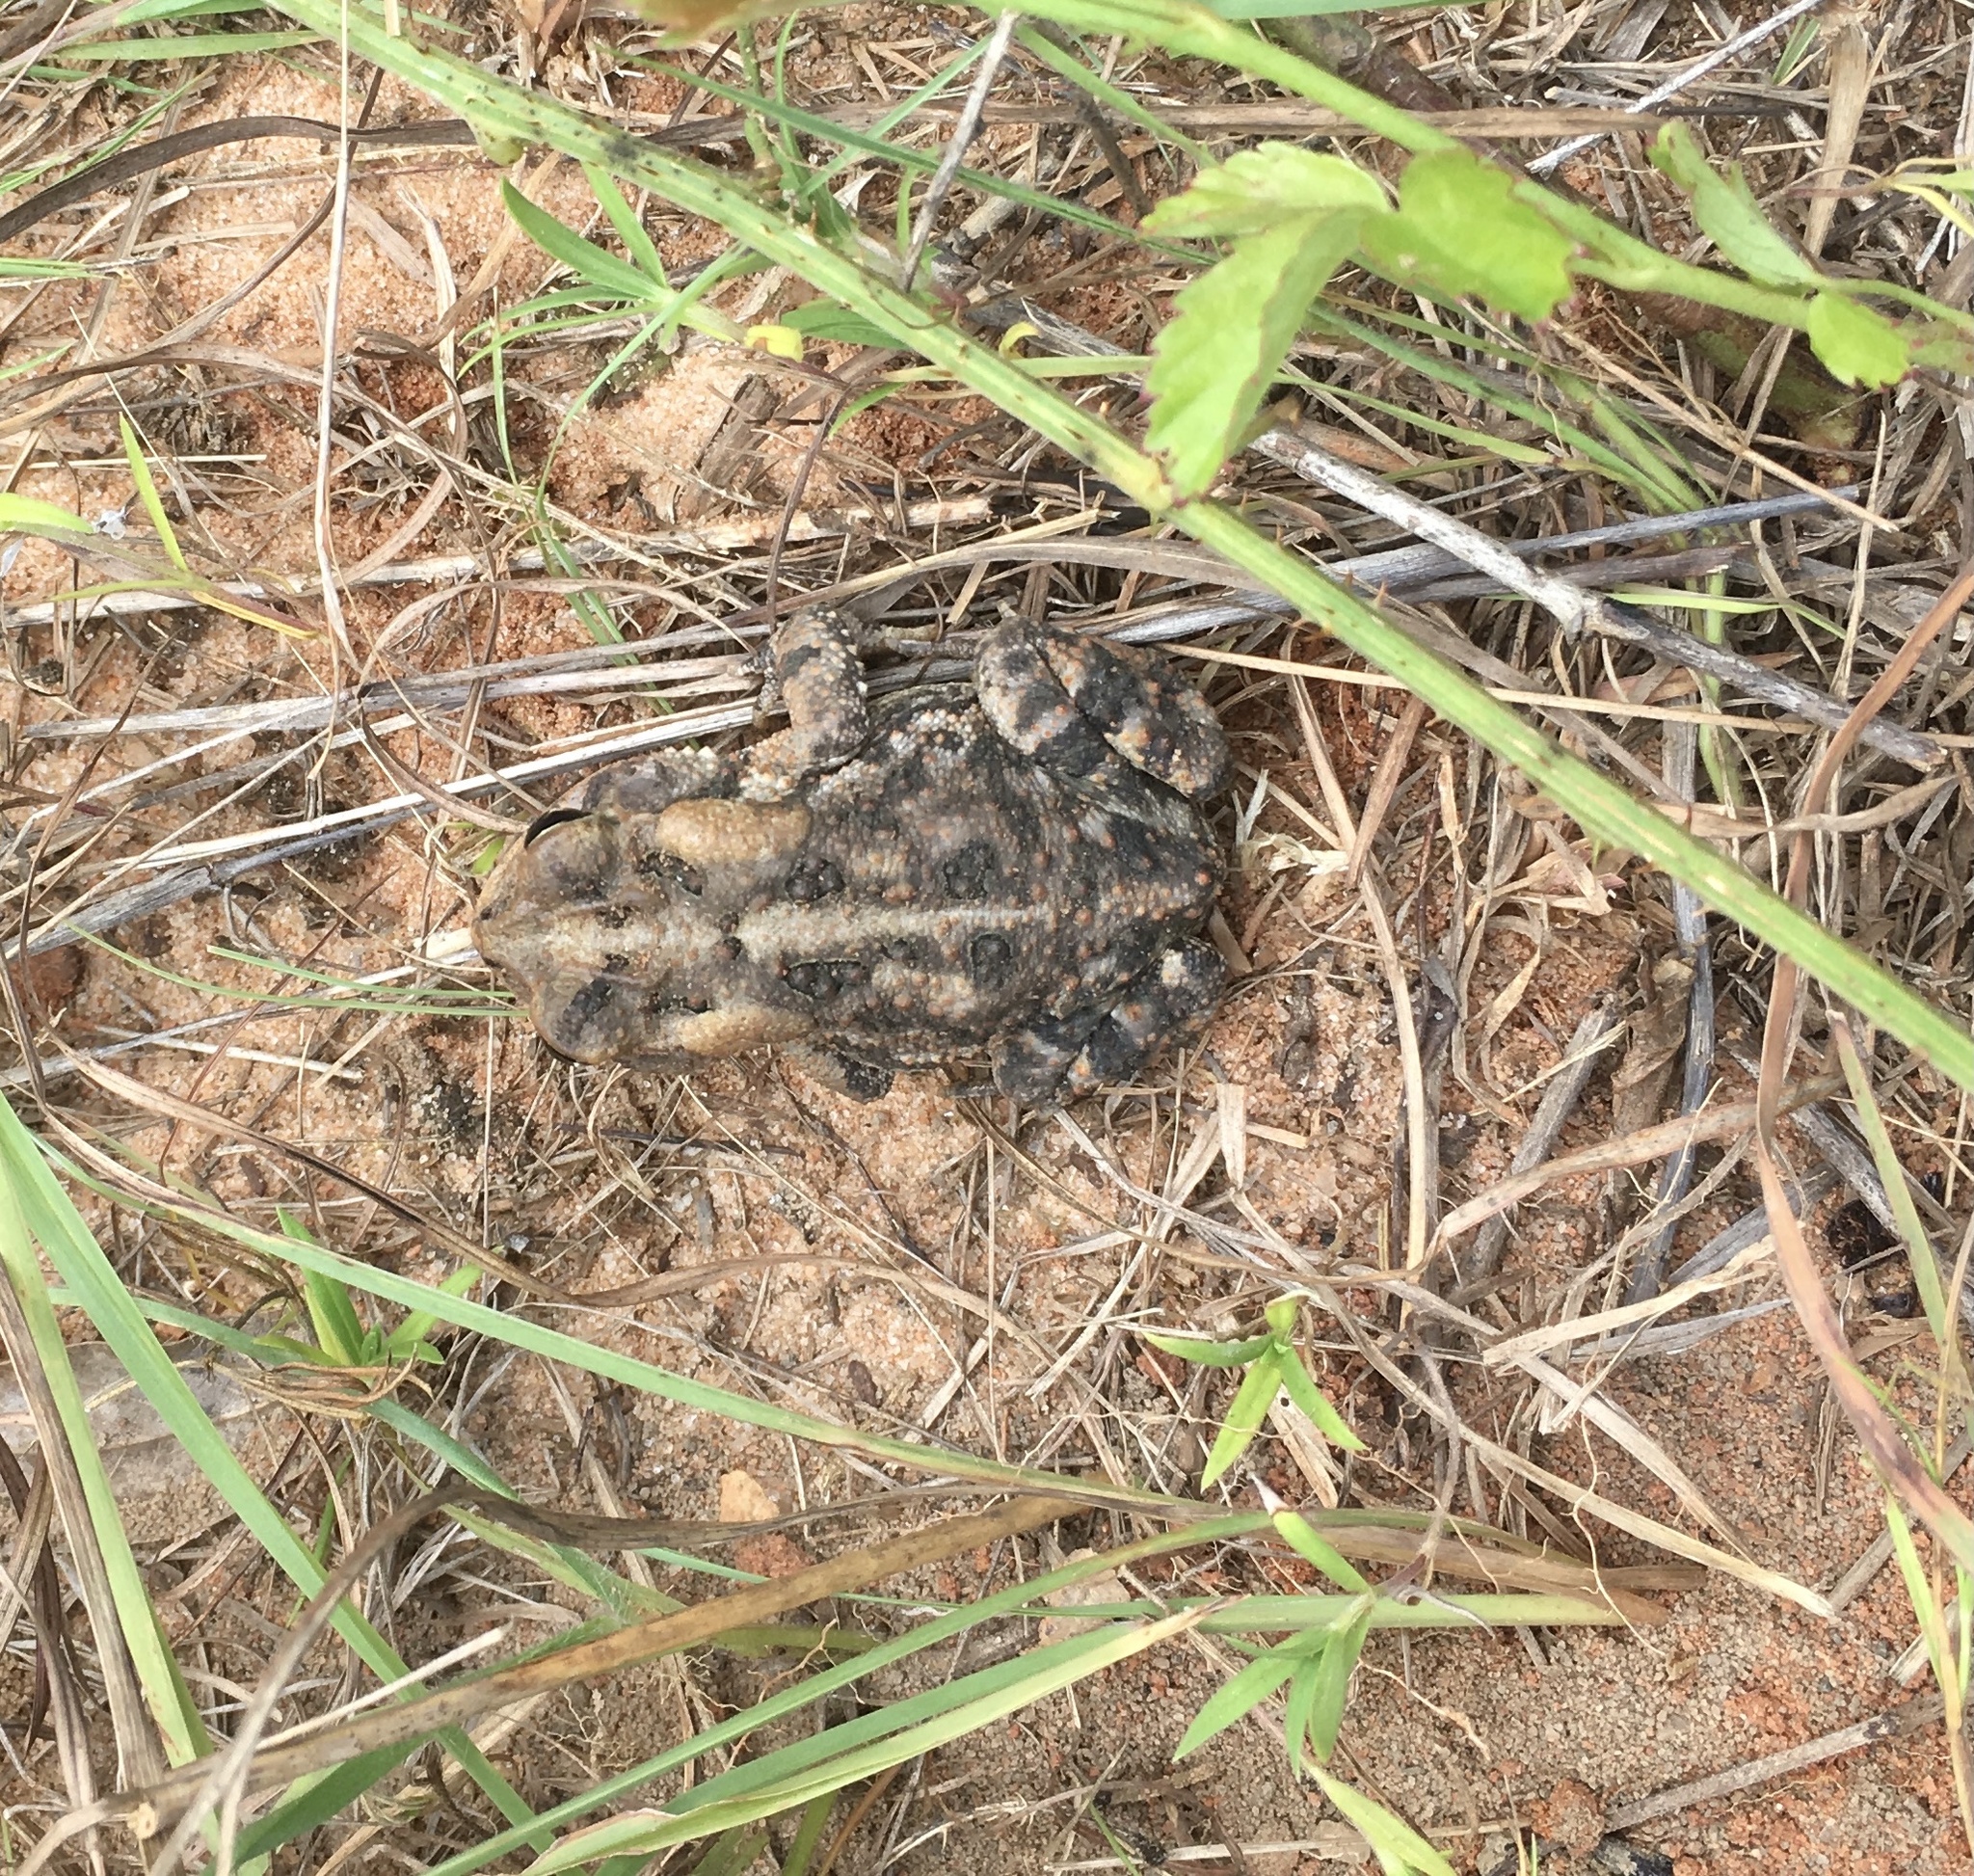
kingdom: Animalia
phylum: Chordata
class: Amphibia
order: Anura
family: Bufonidae
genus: Anaxyrus
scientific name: Anaxyrus terrestris
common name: Southern toad
